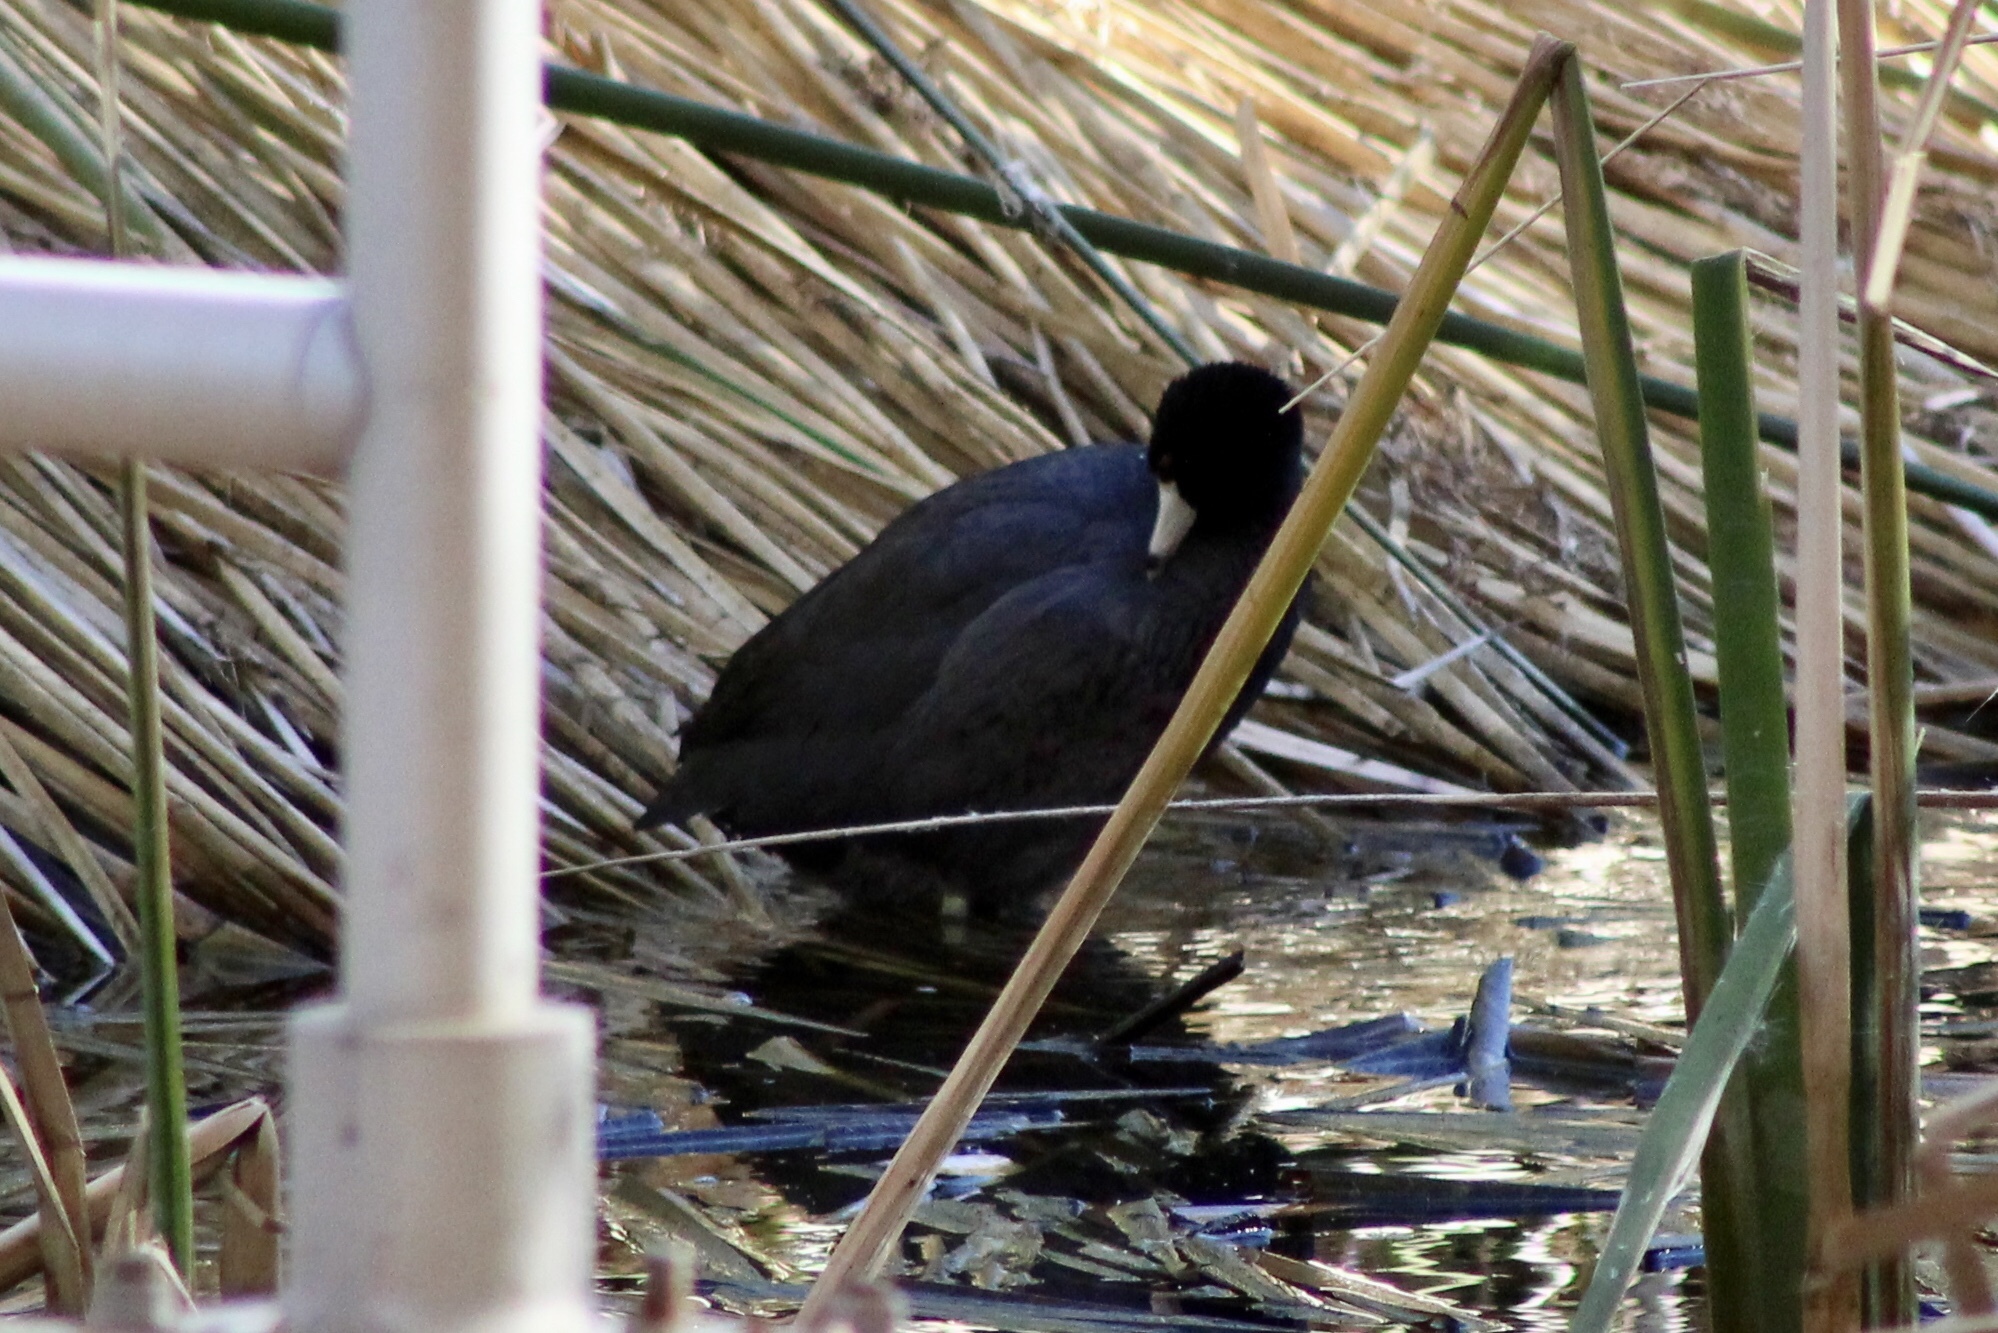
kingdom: Animalia
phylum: Chordata
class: Aves
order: Gruiformes
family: Rallidae
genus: Fulica
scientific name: Fulica americana
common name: American coot
